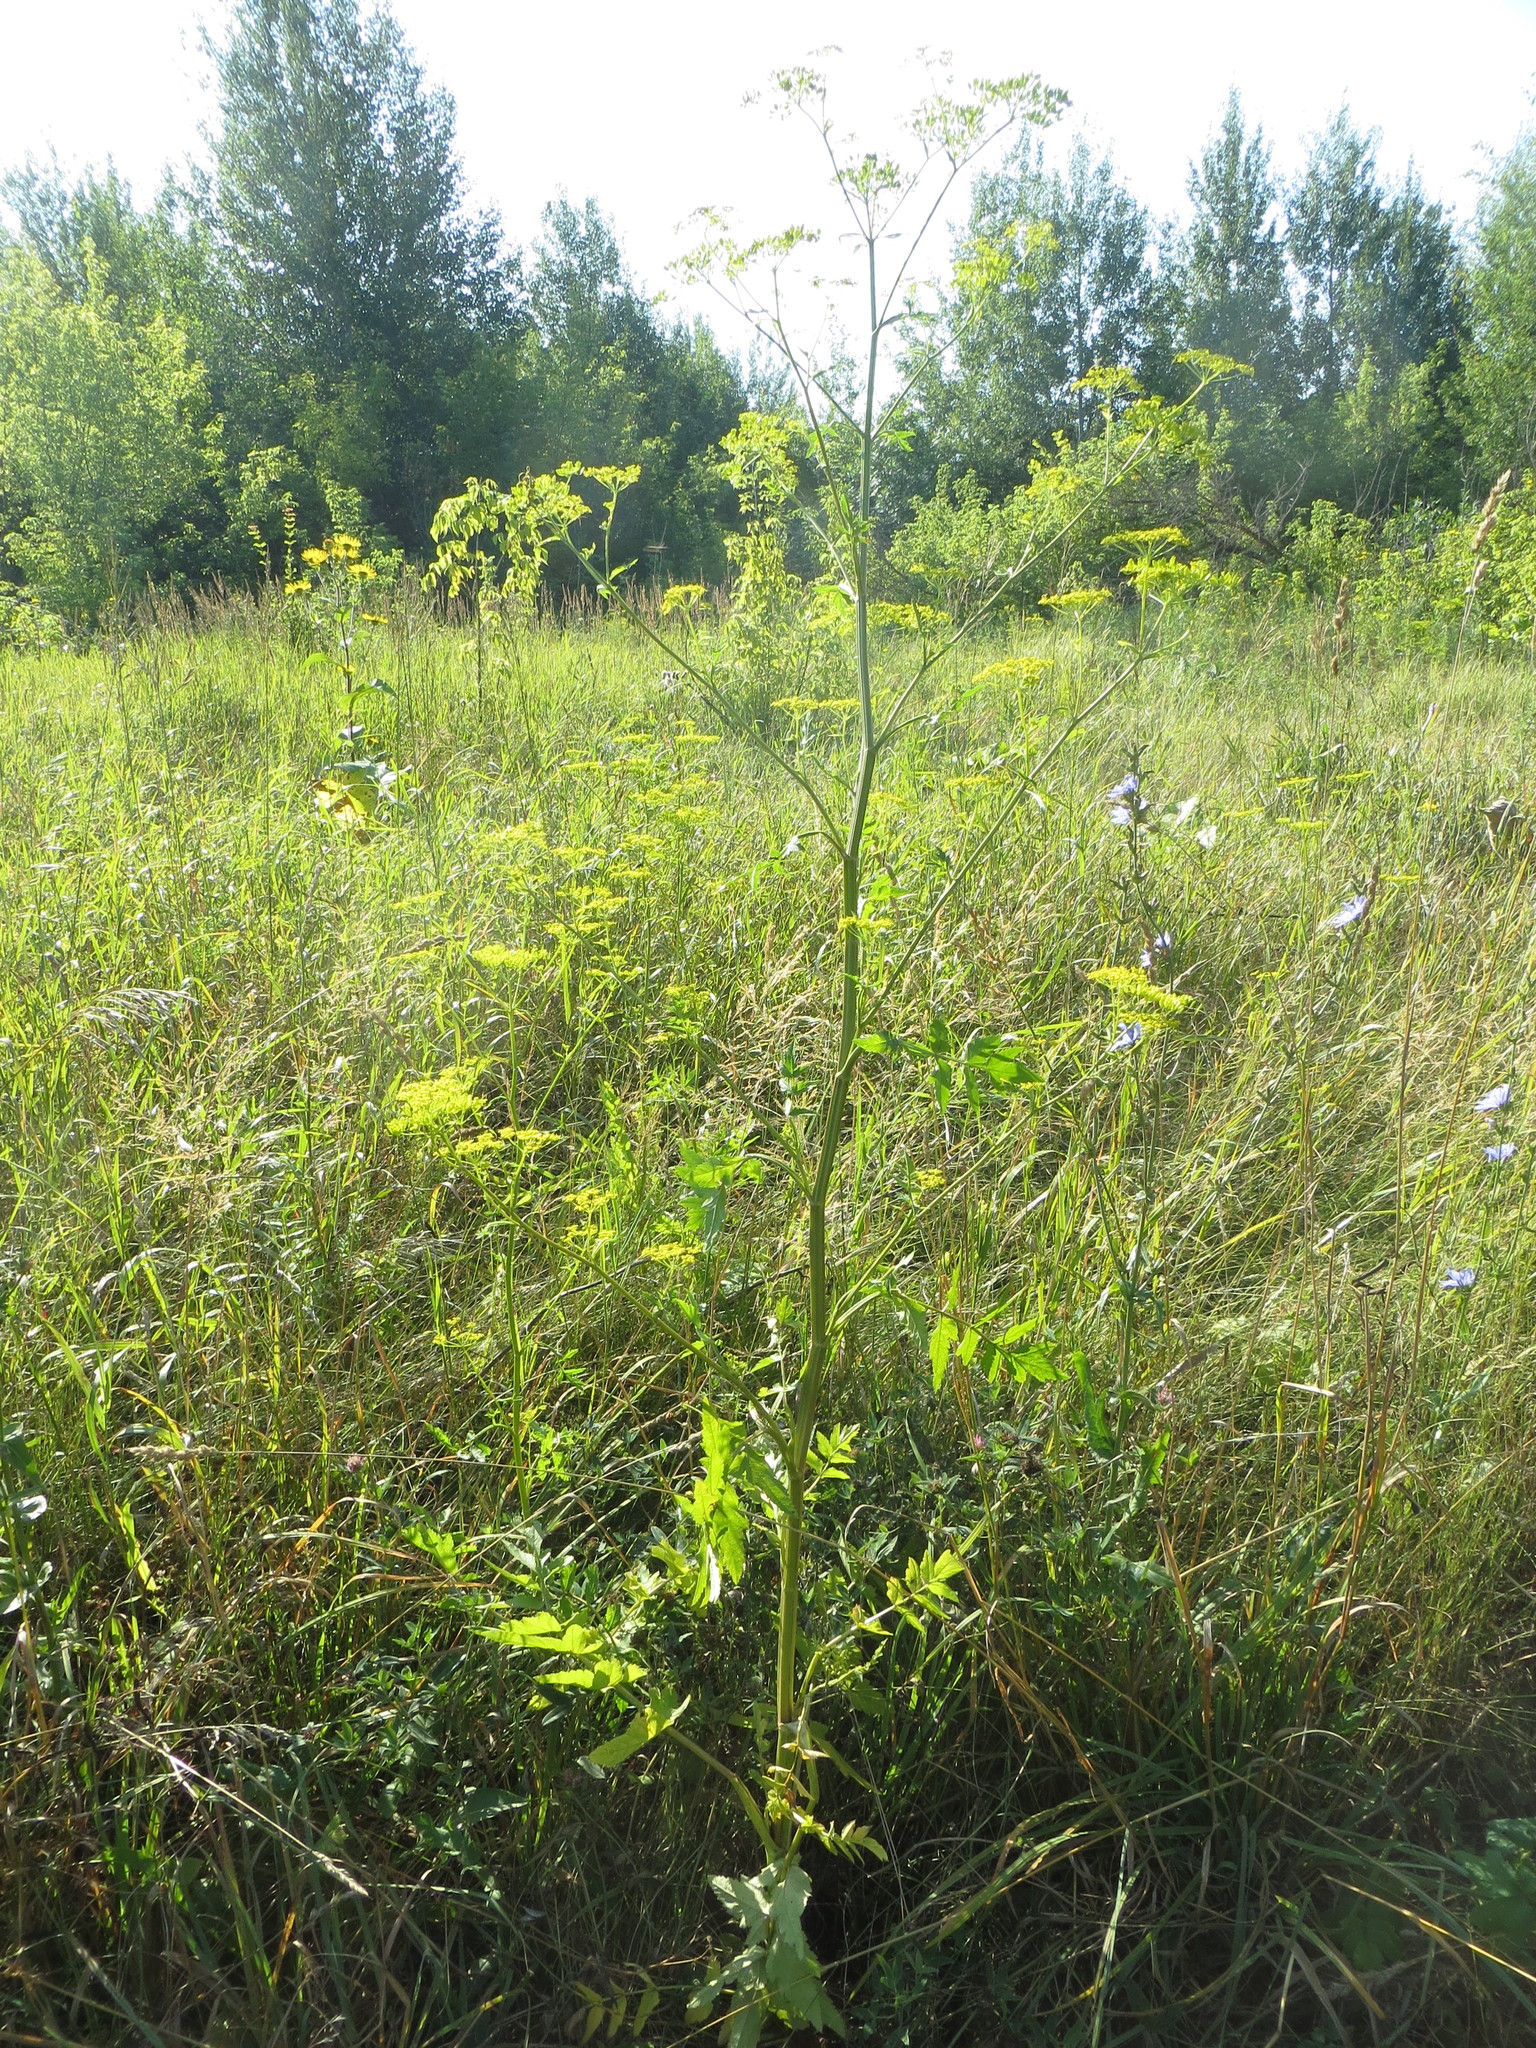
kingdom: Plantae
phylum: Tracheophyta
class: Magnoliopsida
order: Apiales
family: Apiaceae
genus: Pastinaca
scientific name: Pastinaca sativa
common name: Wild parsnip
